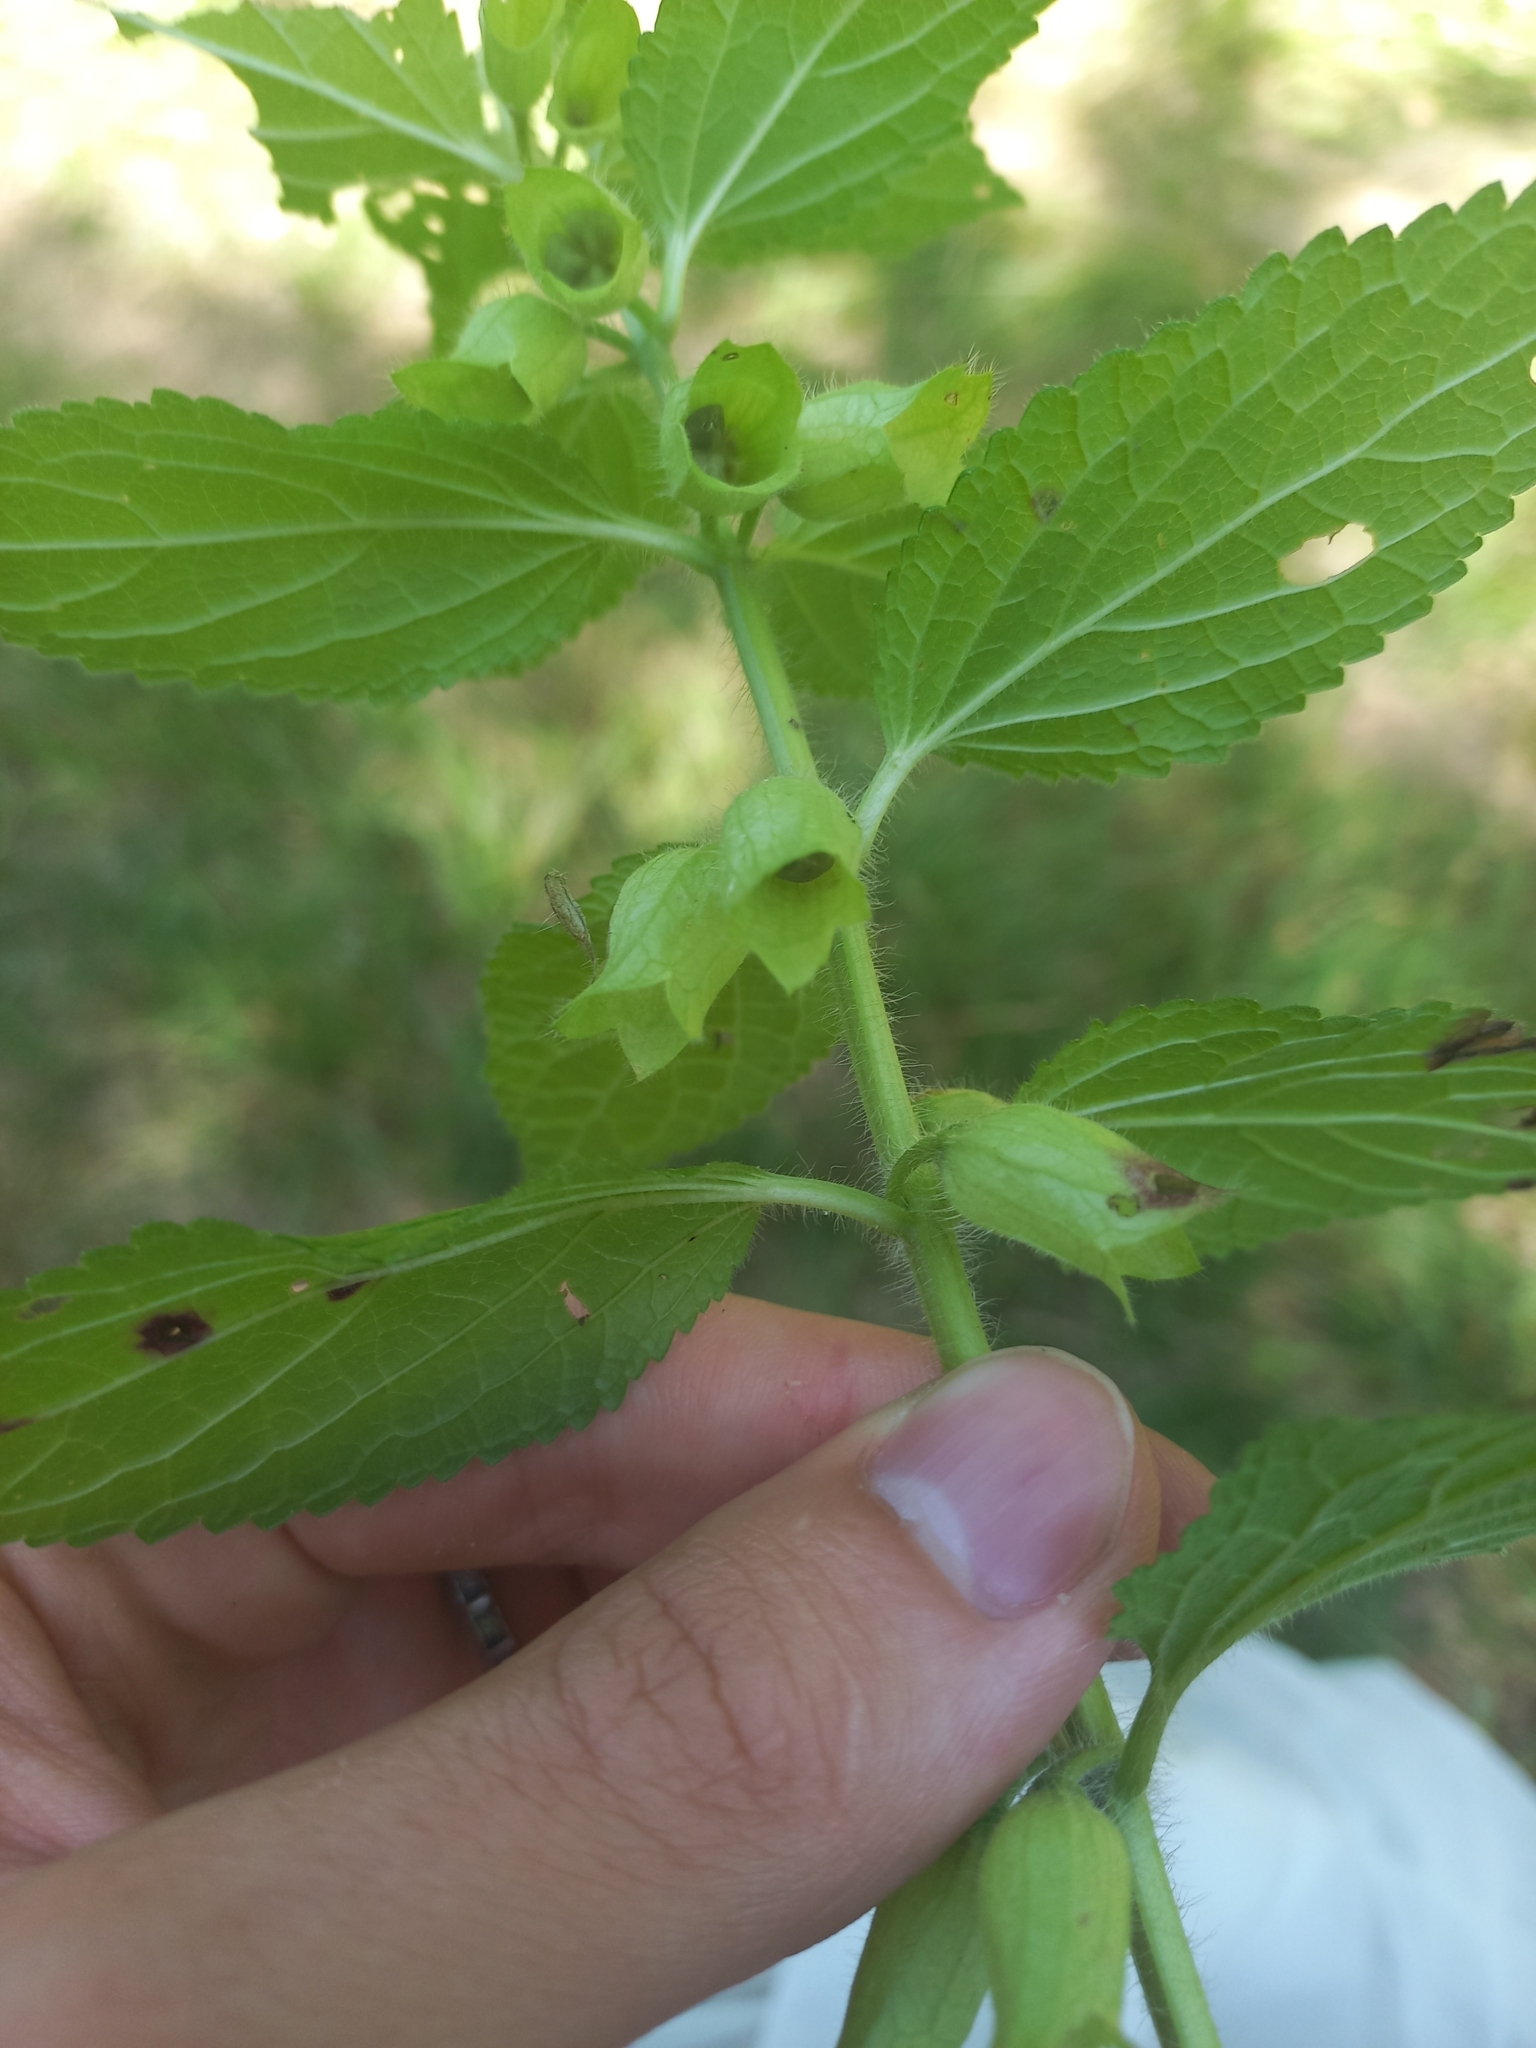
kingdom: Plantae
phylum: Tracheophyta
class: Magnoliopsida
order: Lamiales
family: Lamiaceae
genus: Melittis
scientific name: Melittis melissophyllum
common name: Bastard balm
